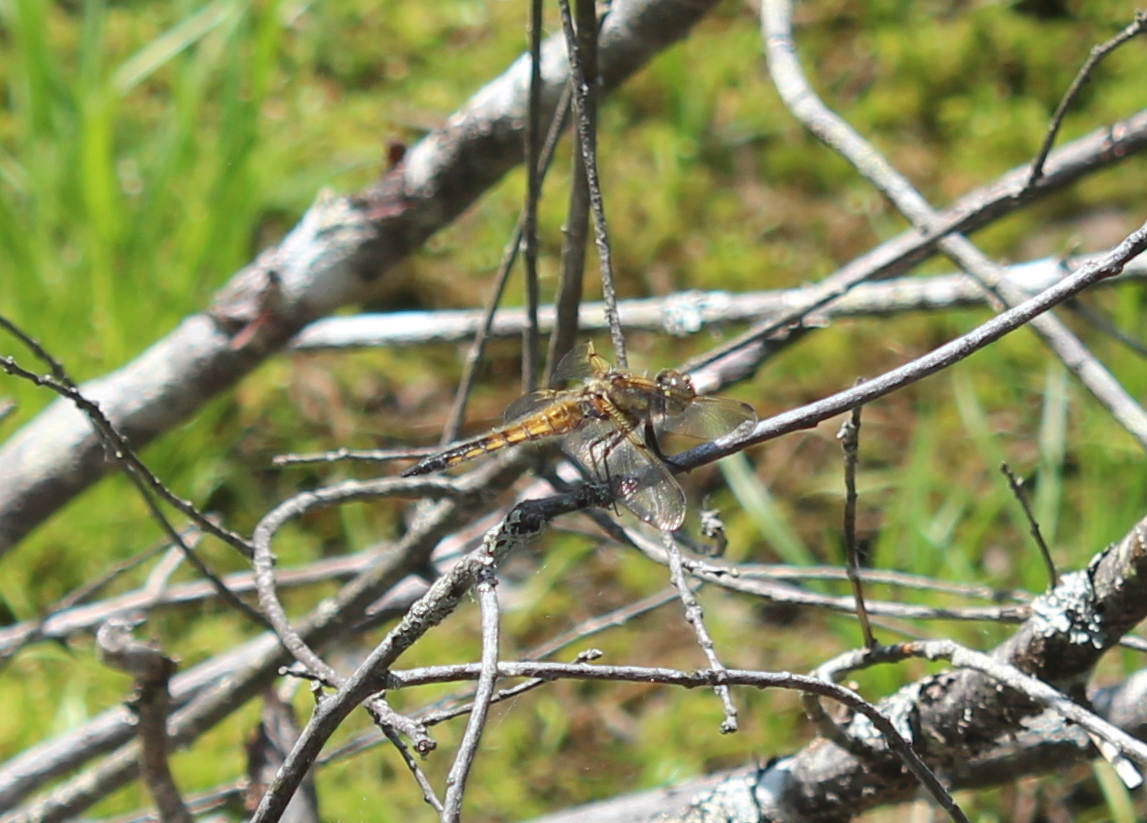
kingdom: Animalia
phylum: Arthropoda
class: Insecta
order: Odonata
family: Libellulidae
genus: Libellula
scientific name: Libellula quadrimaculata
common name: Four-spotted chaser
